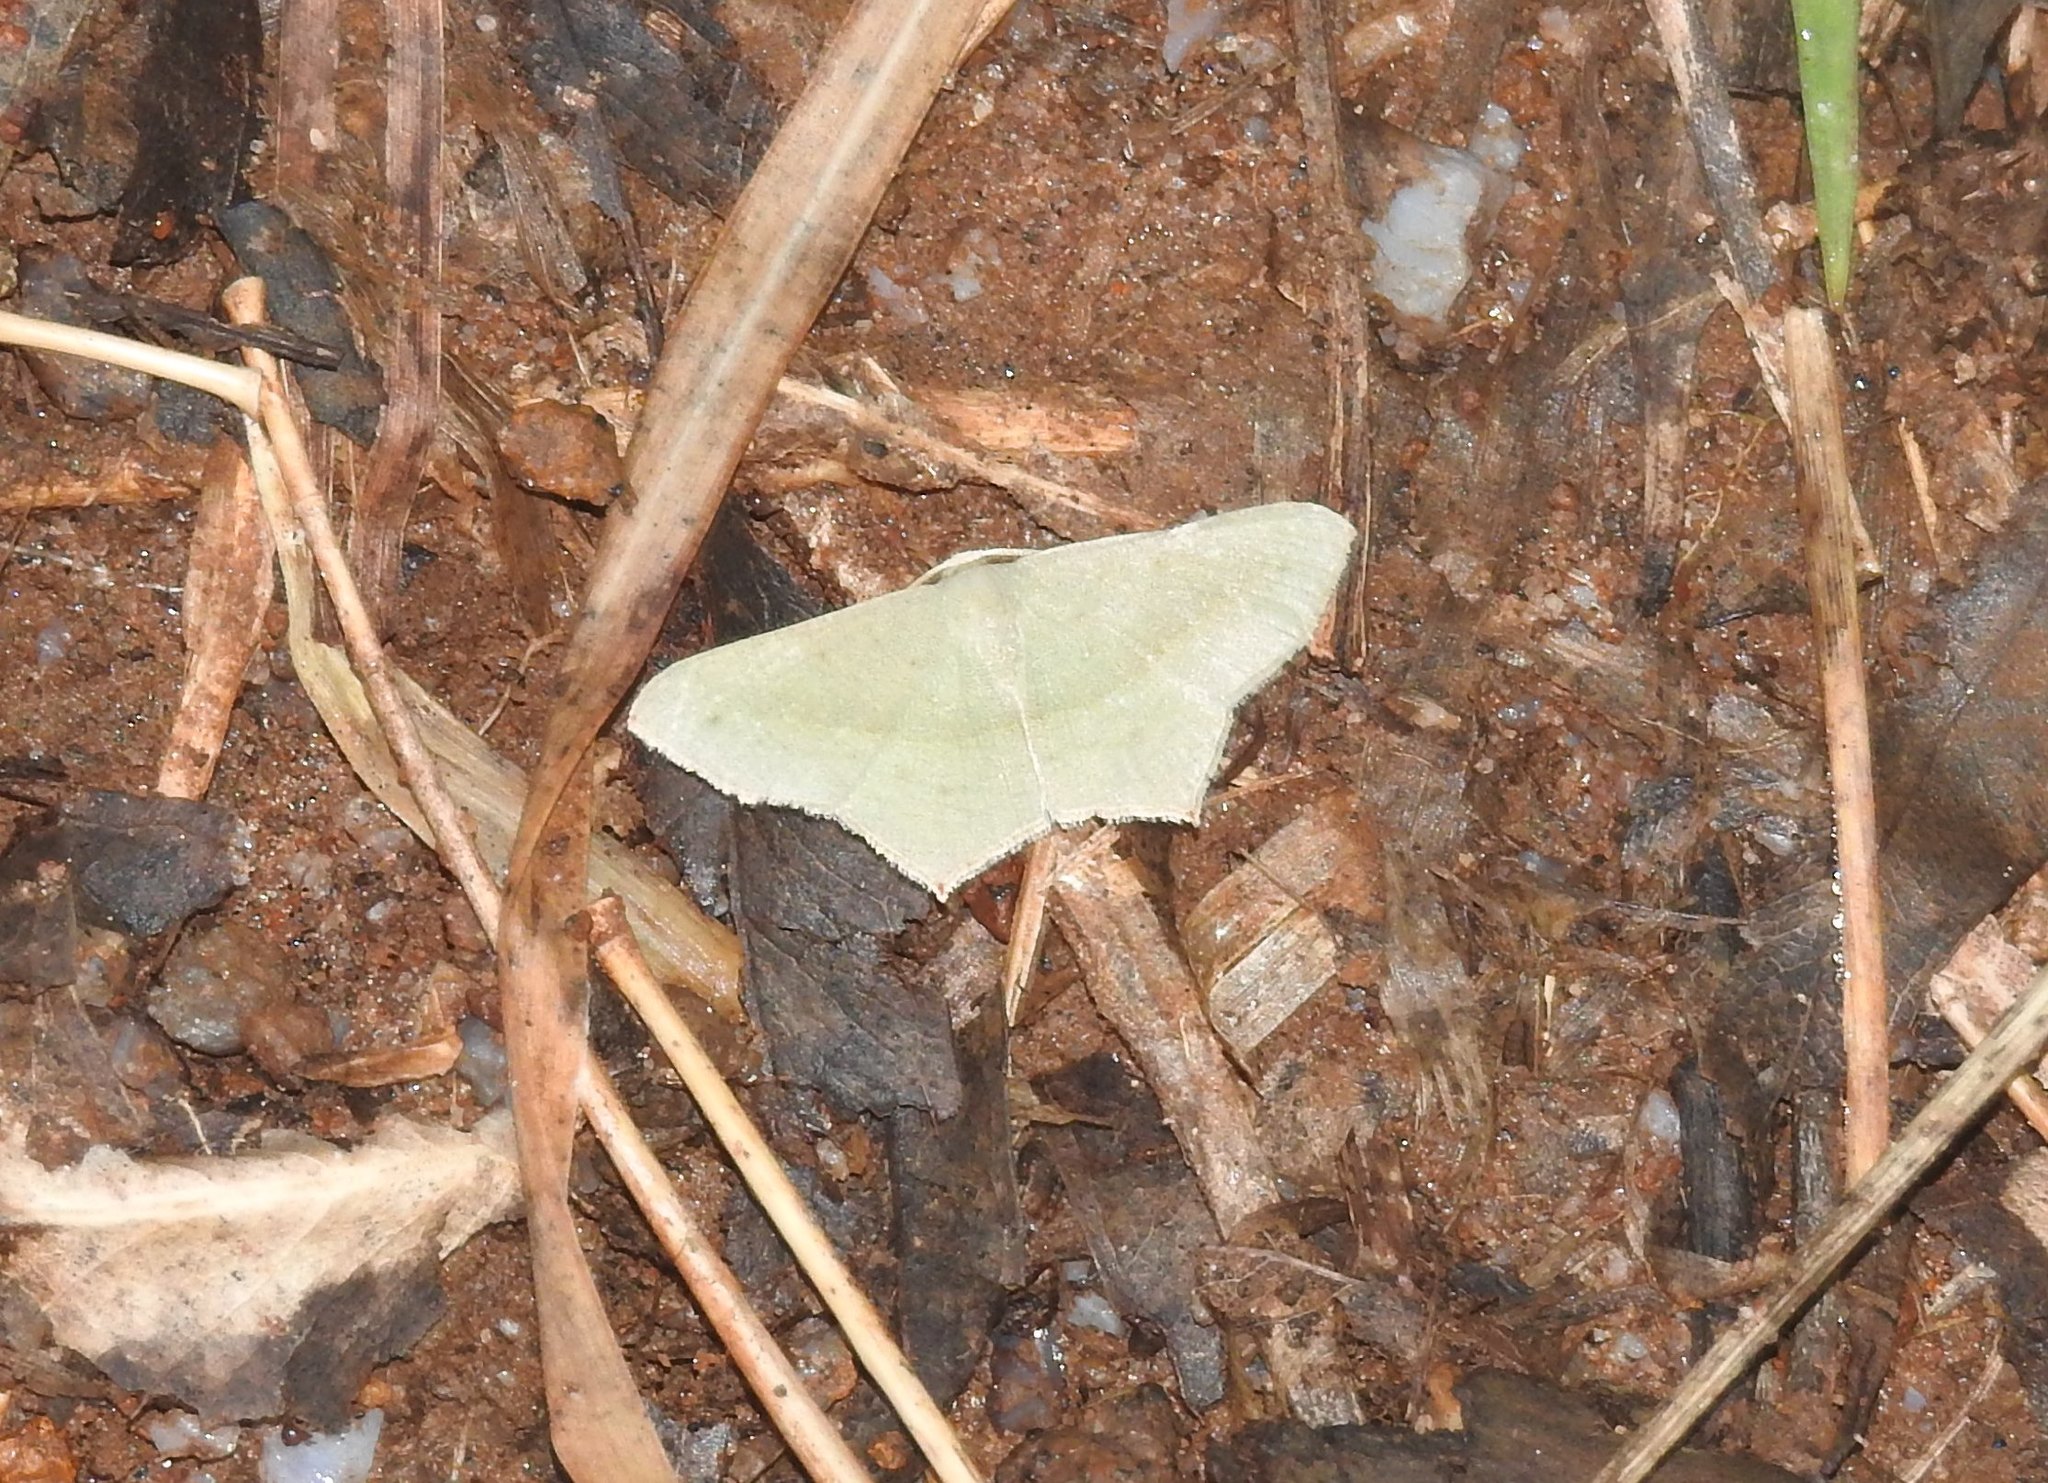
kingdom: Animalia
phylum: Arthropoda
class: Insecta
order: Lepidoptera
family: Geometridae
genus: Traminda
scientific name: Traminda mundissima
